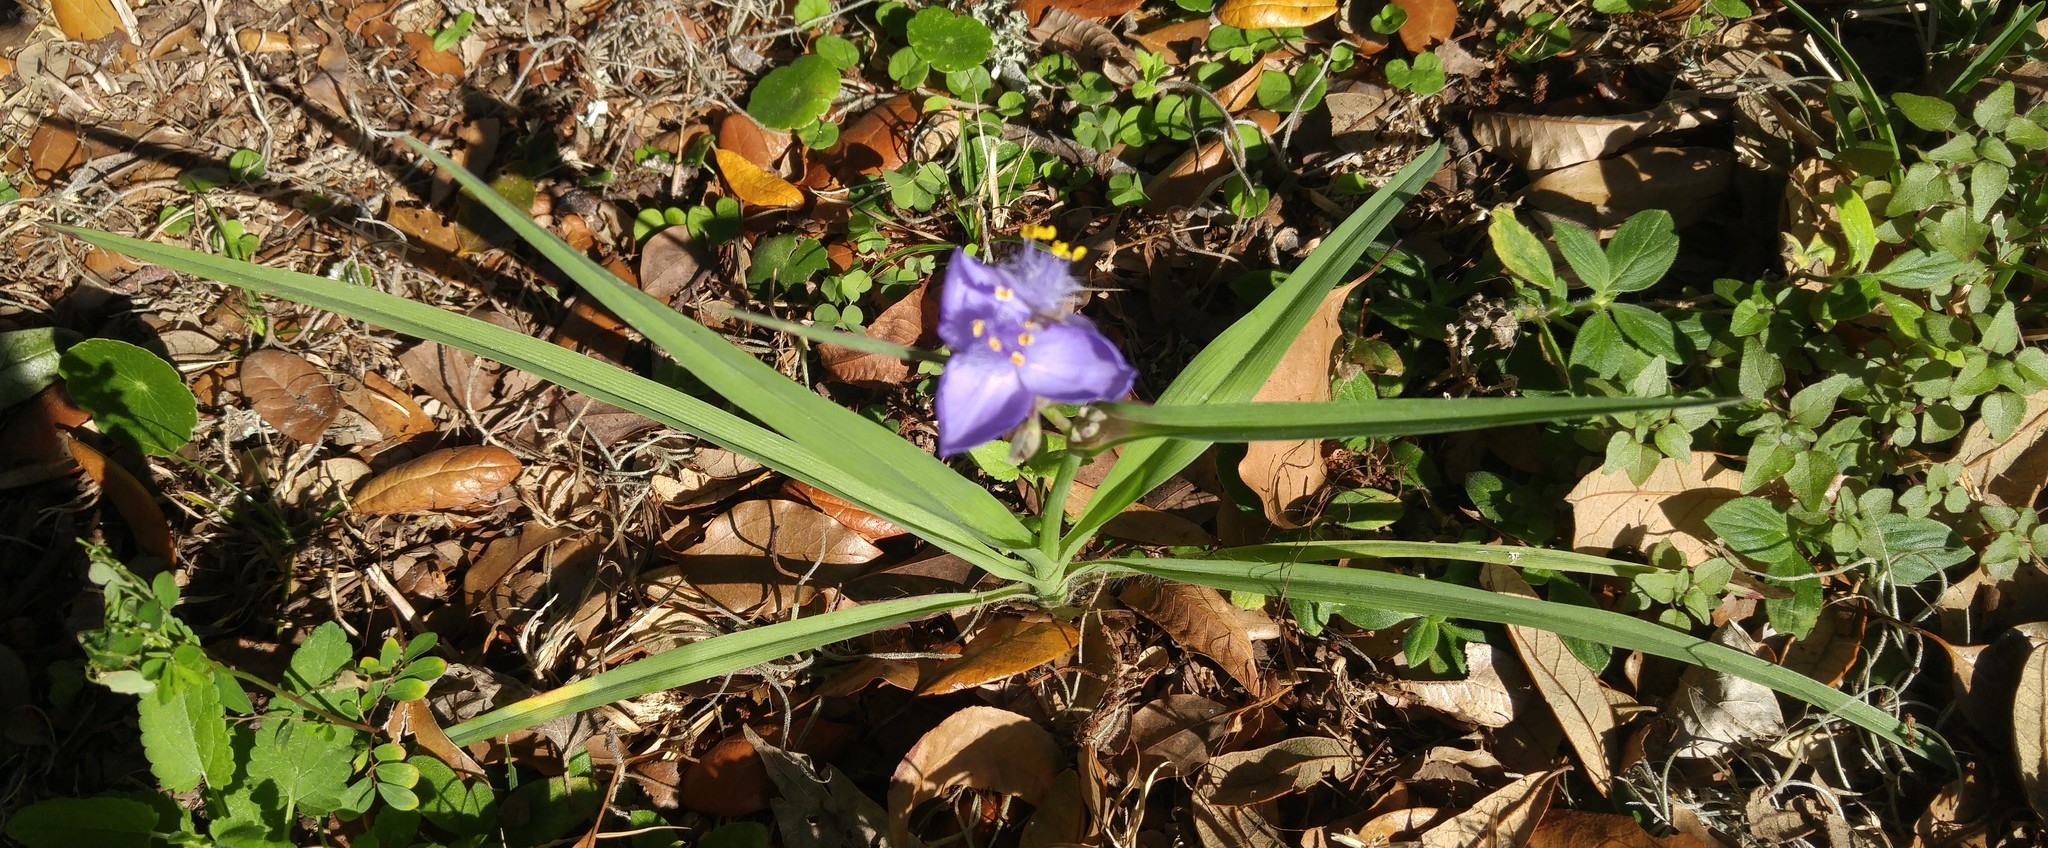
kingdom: Plantae
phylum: Tracheophyta
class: Liliopsida
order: Commelinales
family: Commelinaceae
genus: Tradescantia
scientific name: Tradescantia ohiensis
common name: Ohio spiderwort
